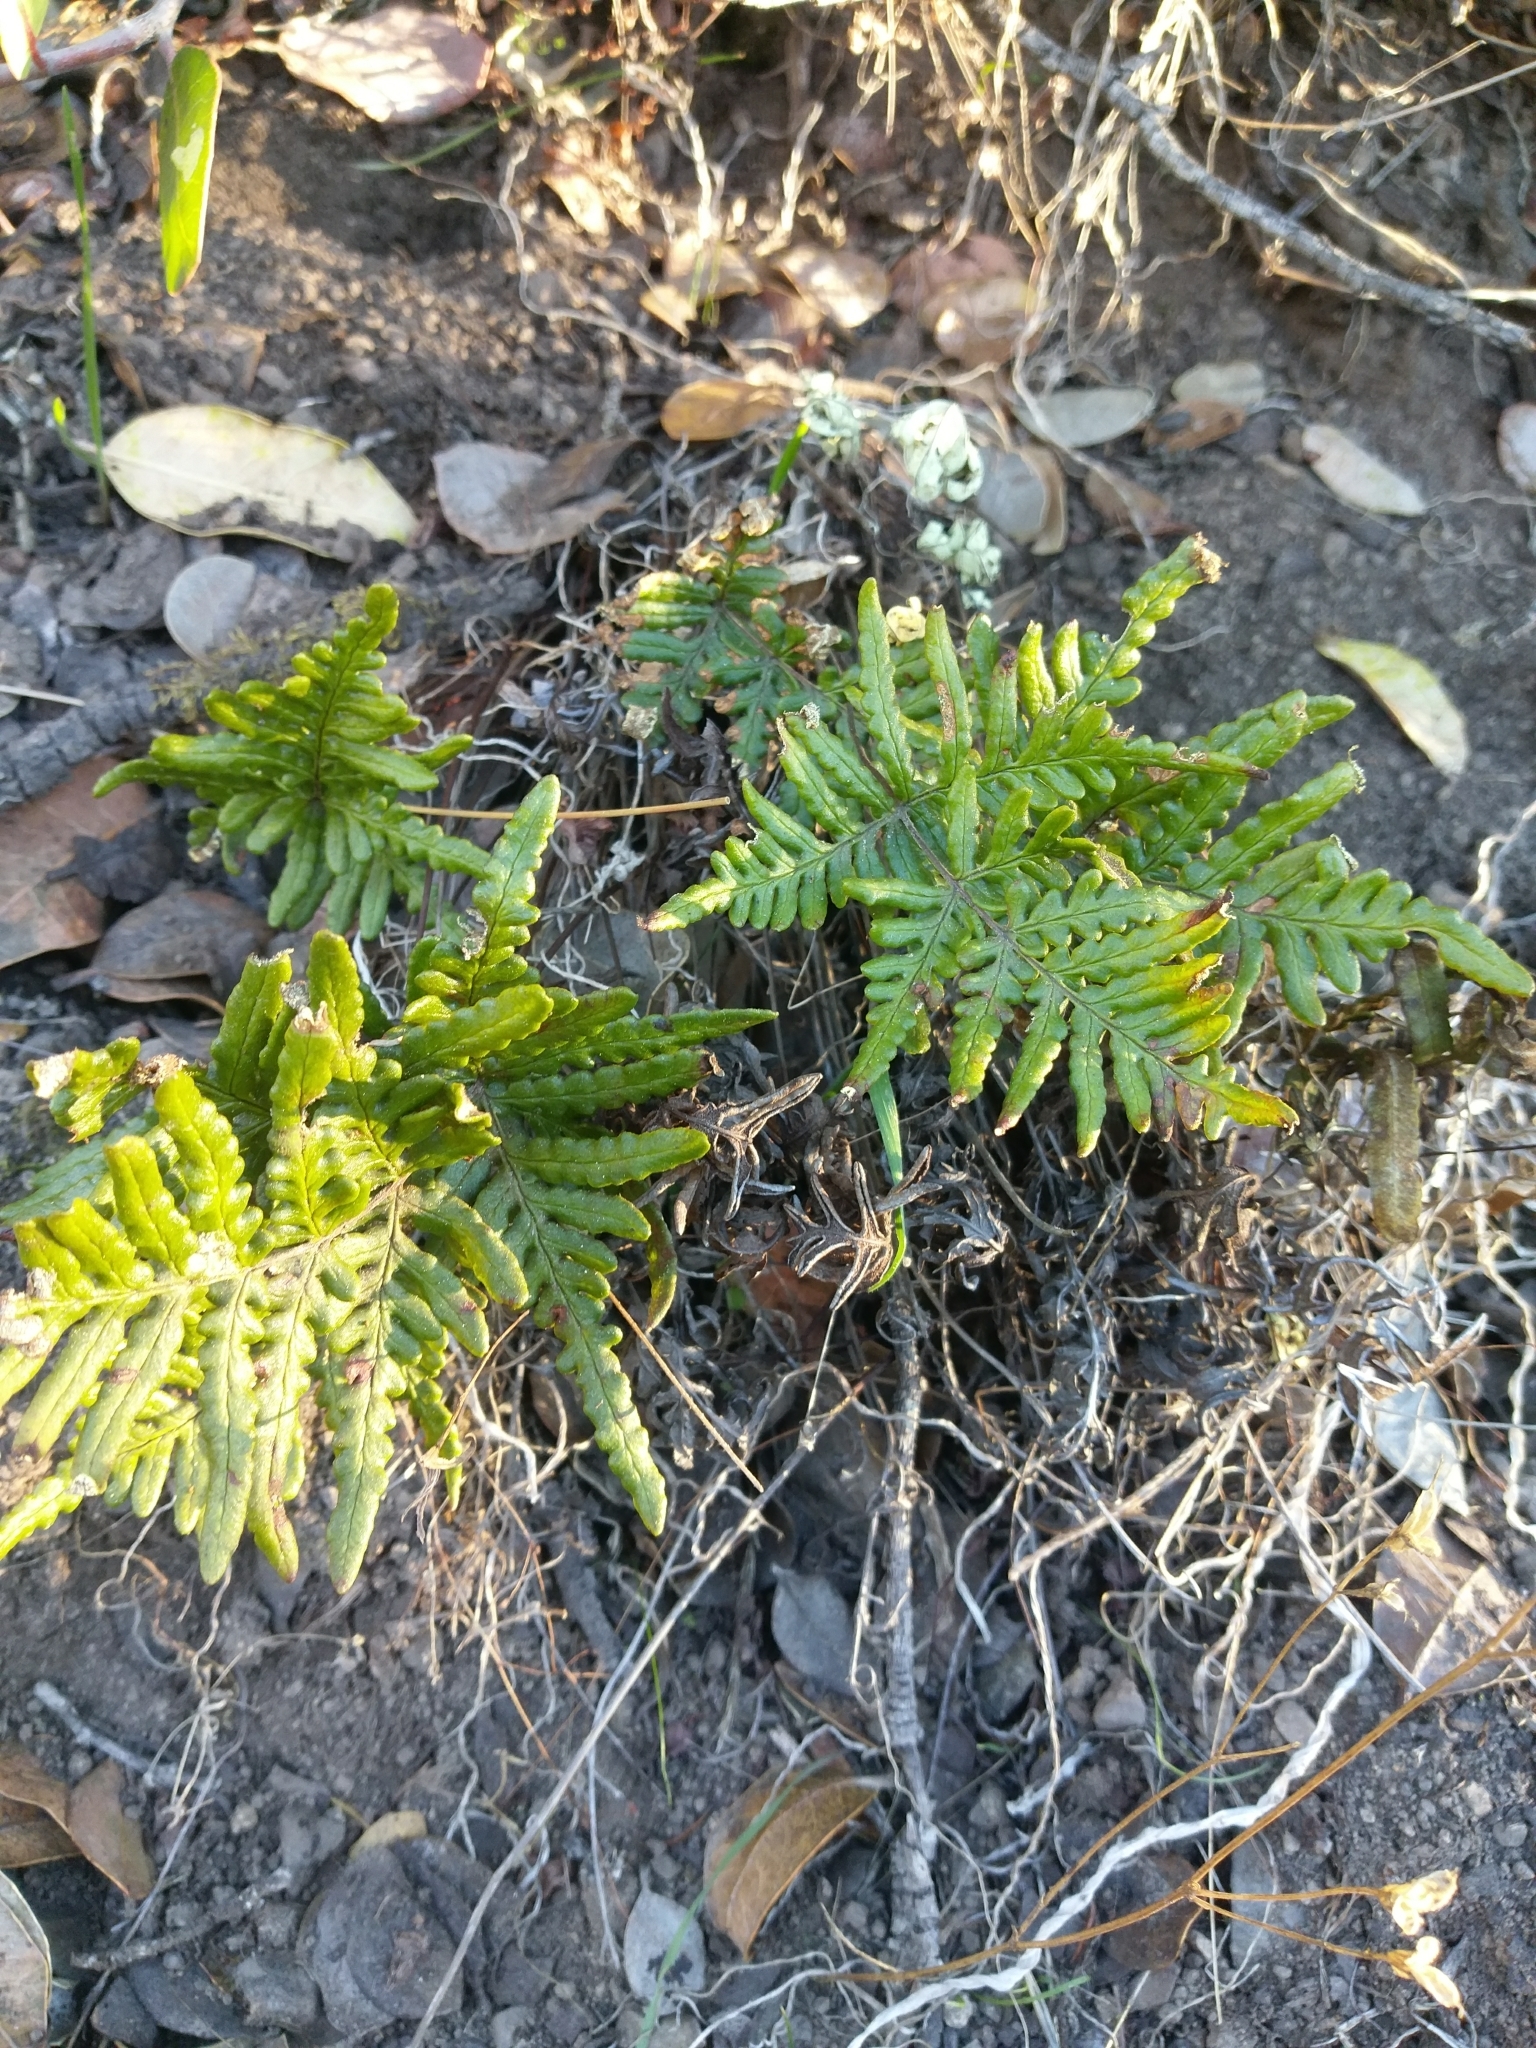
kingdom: Plantae
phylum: Tracheophyta
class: Polypodiopsida
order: Polypodiales
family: Pteridaceae
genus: Pentagramma
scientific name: Pentagramma triangularis
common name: Gold fern
